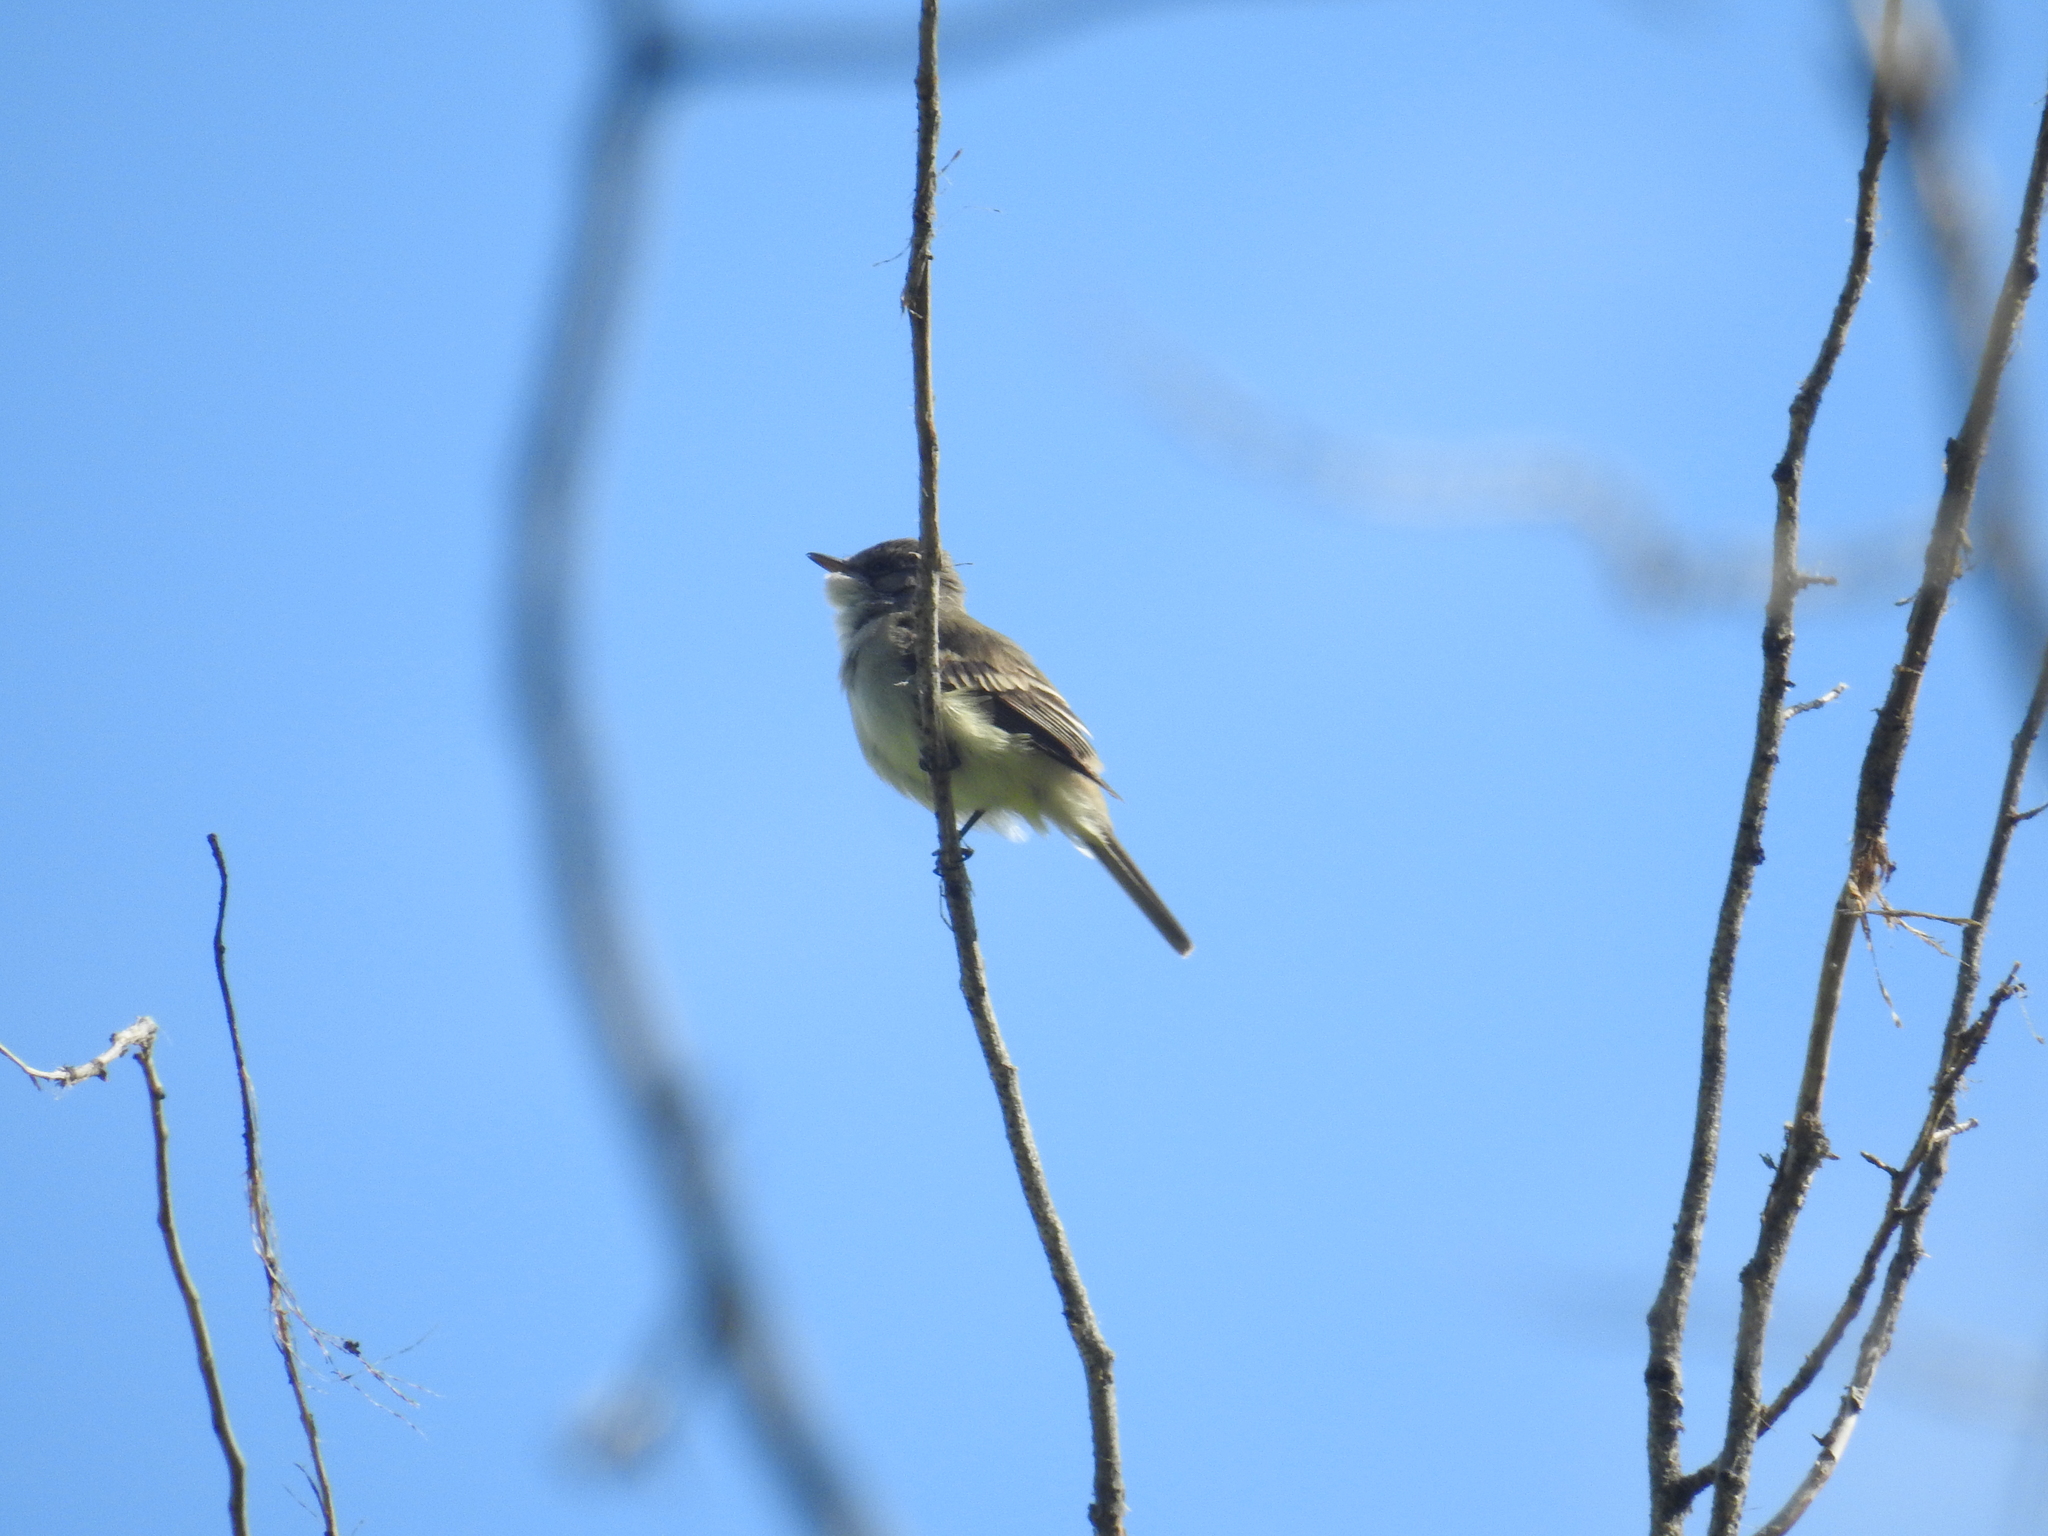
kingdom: Animalia
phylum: Chordata
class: Aves
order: Passeriformes
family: Tyrannidae
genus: Empidonax
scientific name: Empidonax traillii
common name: Willow flycatcher
